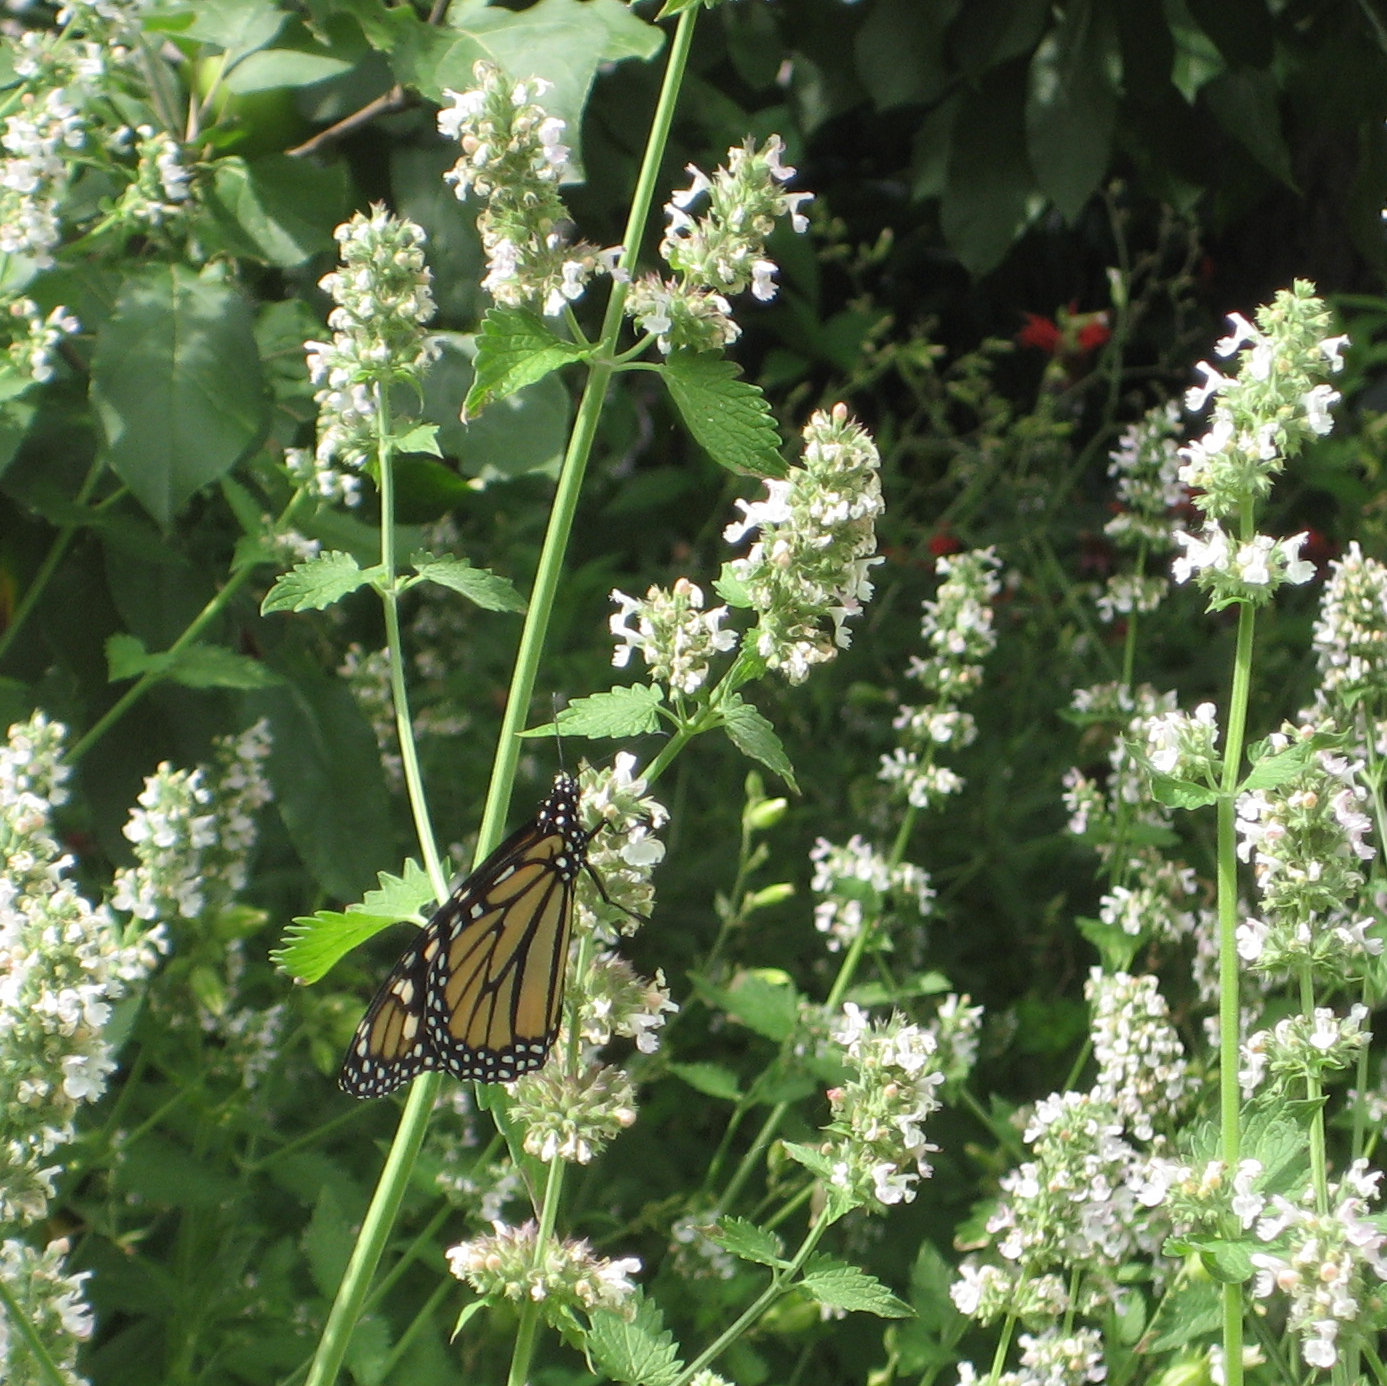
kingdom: Animalia
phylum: Arthropoda
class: Insecta
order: Lepidoptera
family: Nymphalidae
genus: Danaus
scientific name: Danaus plexippus
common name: Monarch
